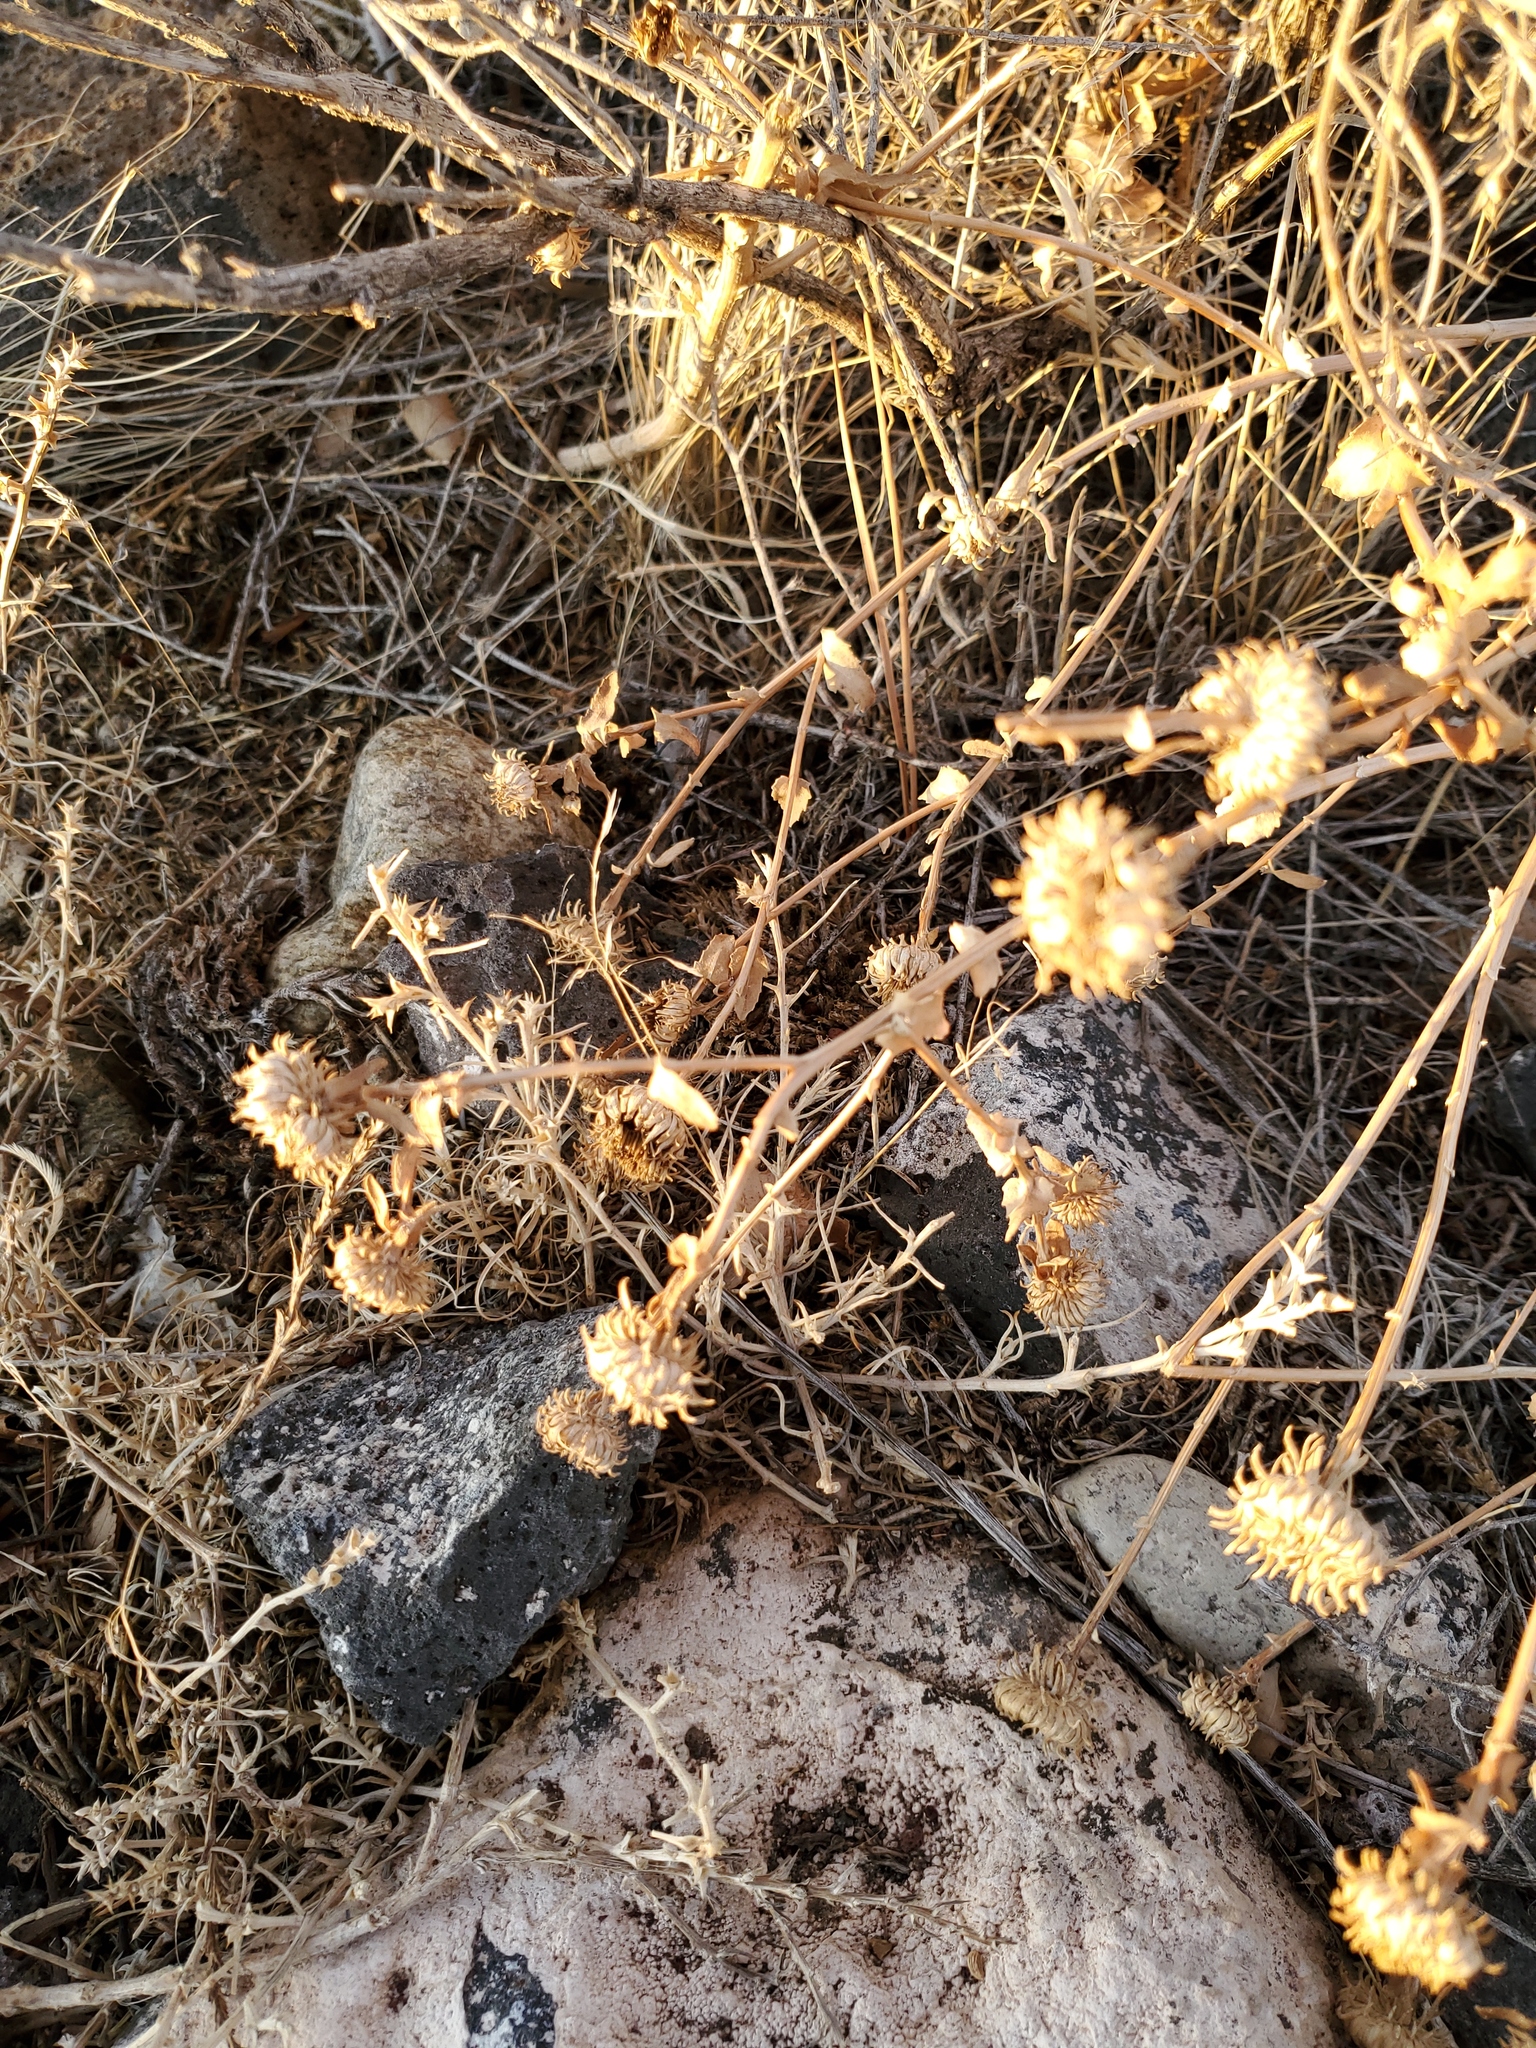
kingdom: Plantae
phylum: Tracheophyta
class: Magnoliopsida
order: Asterales
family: Asteraceae
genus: Grindelia
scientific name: Grindelia squarrosa
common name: Curly-cup gumweed
